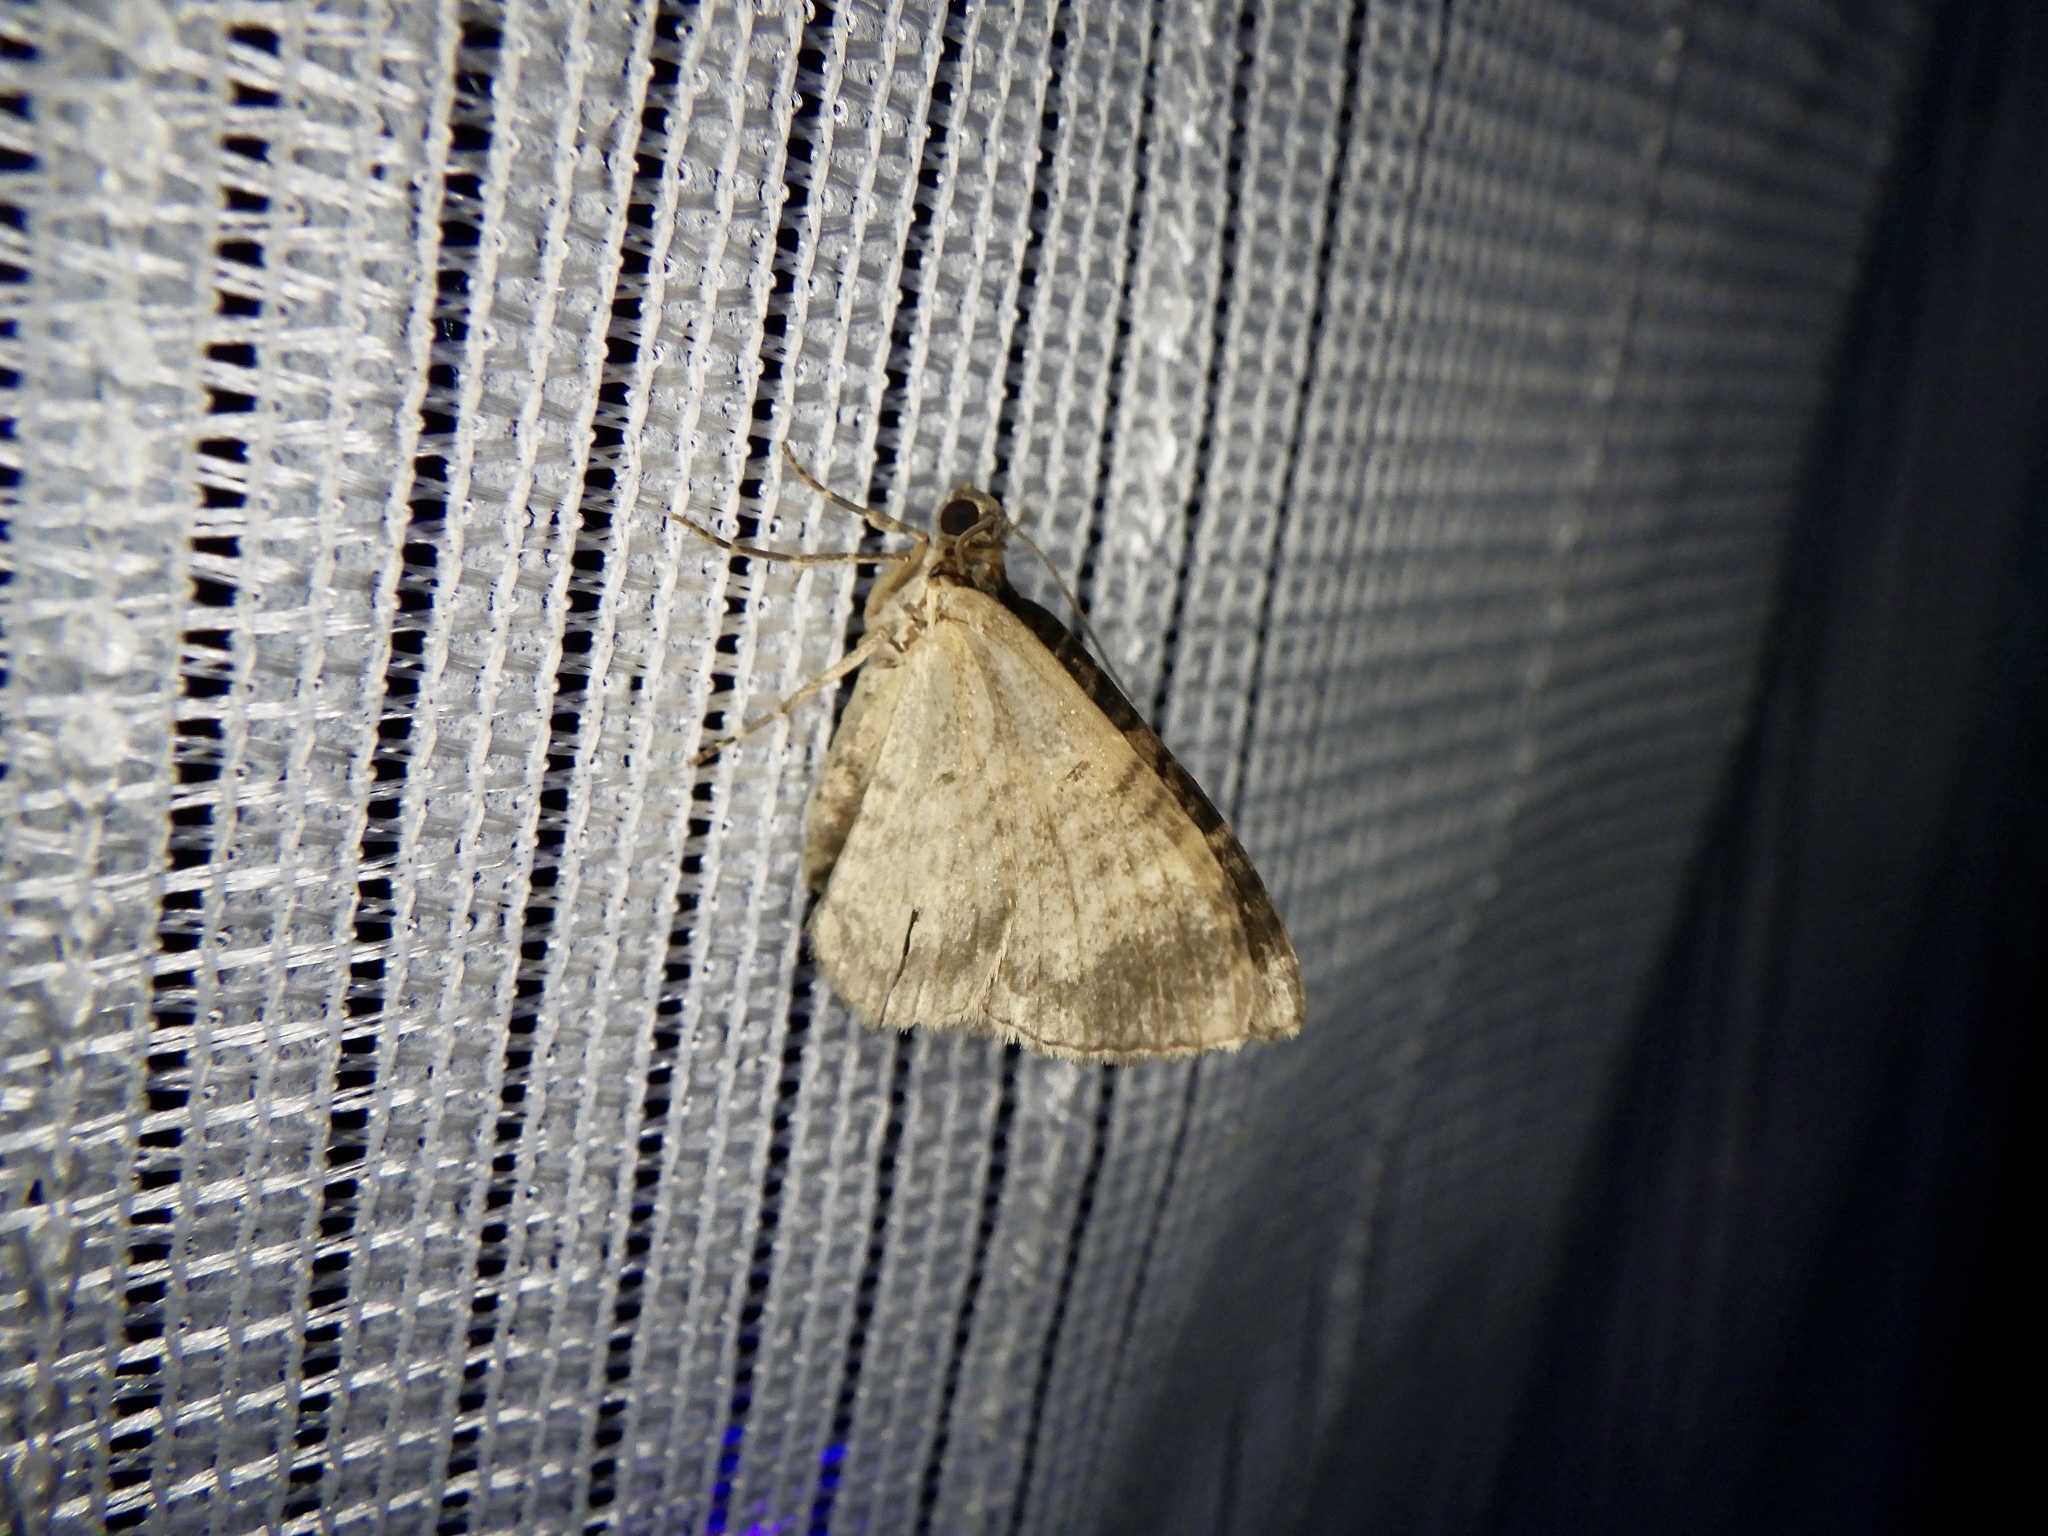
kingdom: Animalia
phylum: Arthropoda
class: Insecta
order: Lepidoptera
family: Geometridae
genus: Microcalcarifera
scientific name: Microcalcarifera obscura
